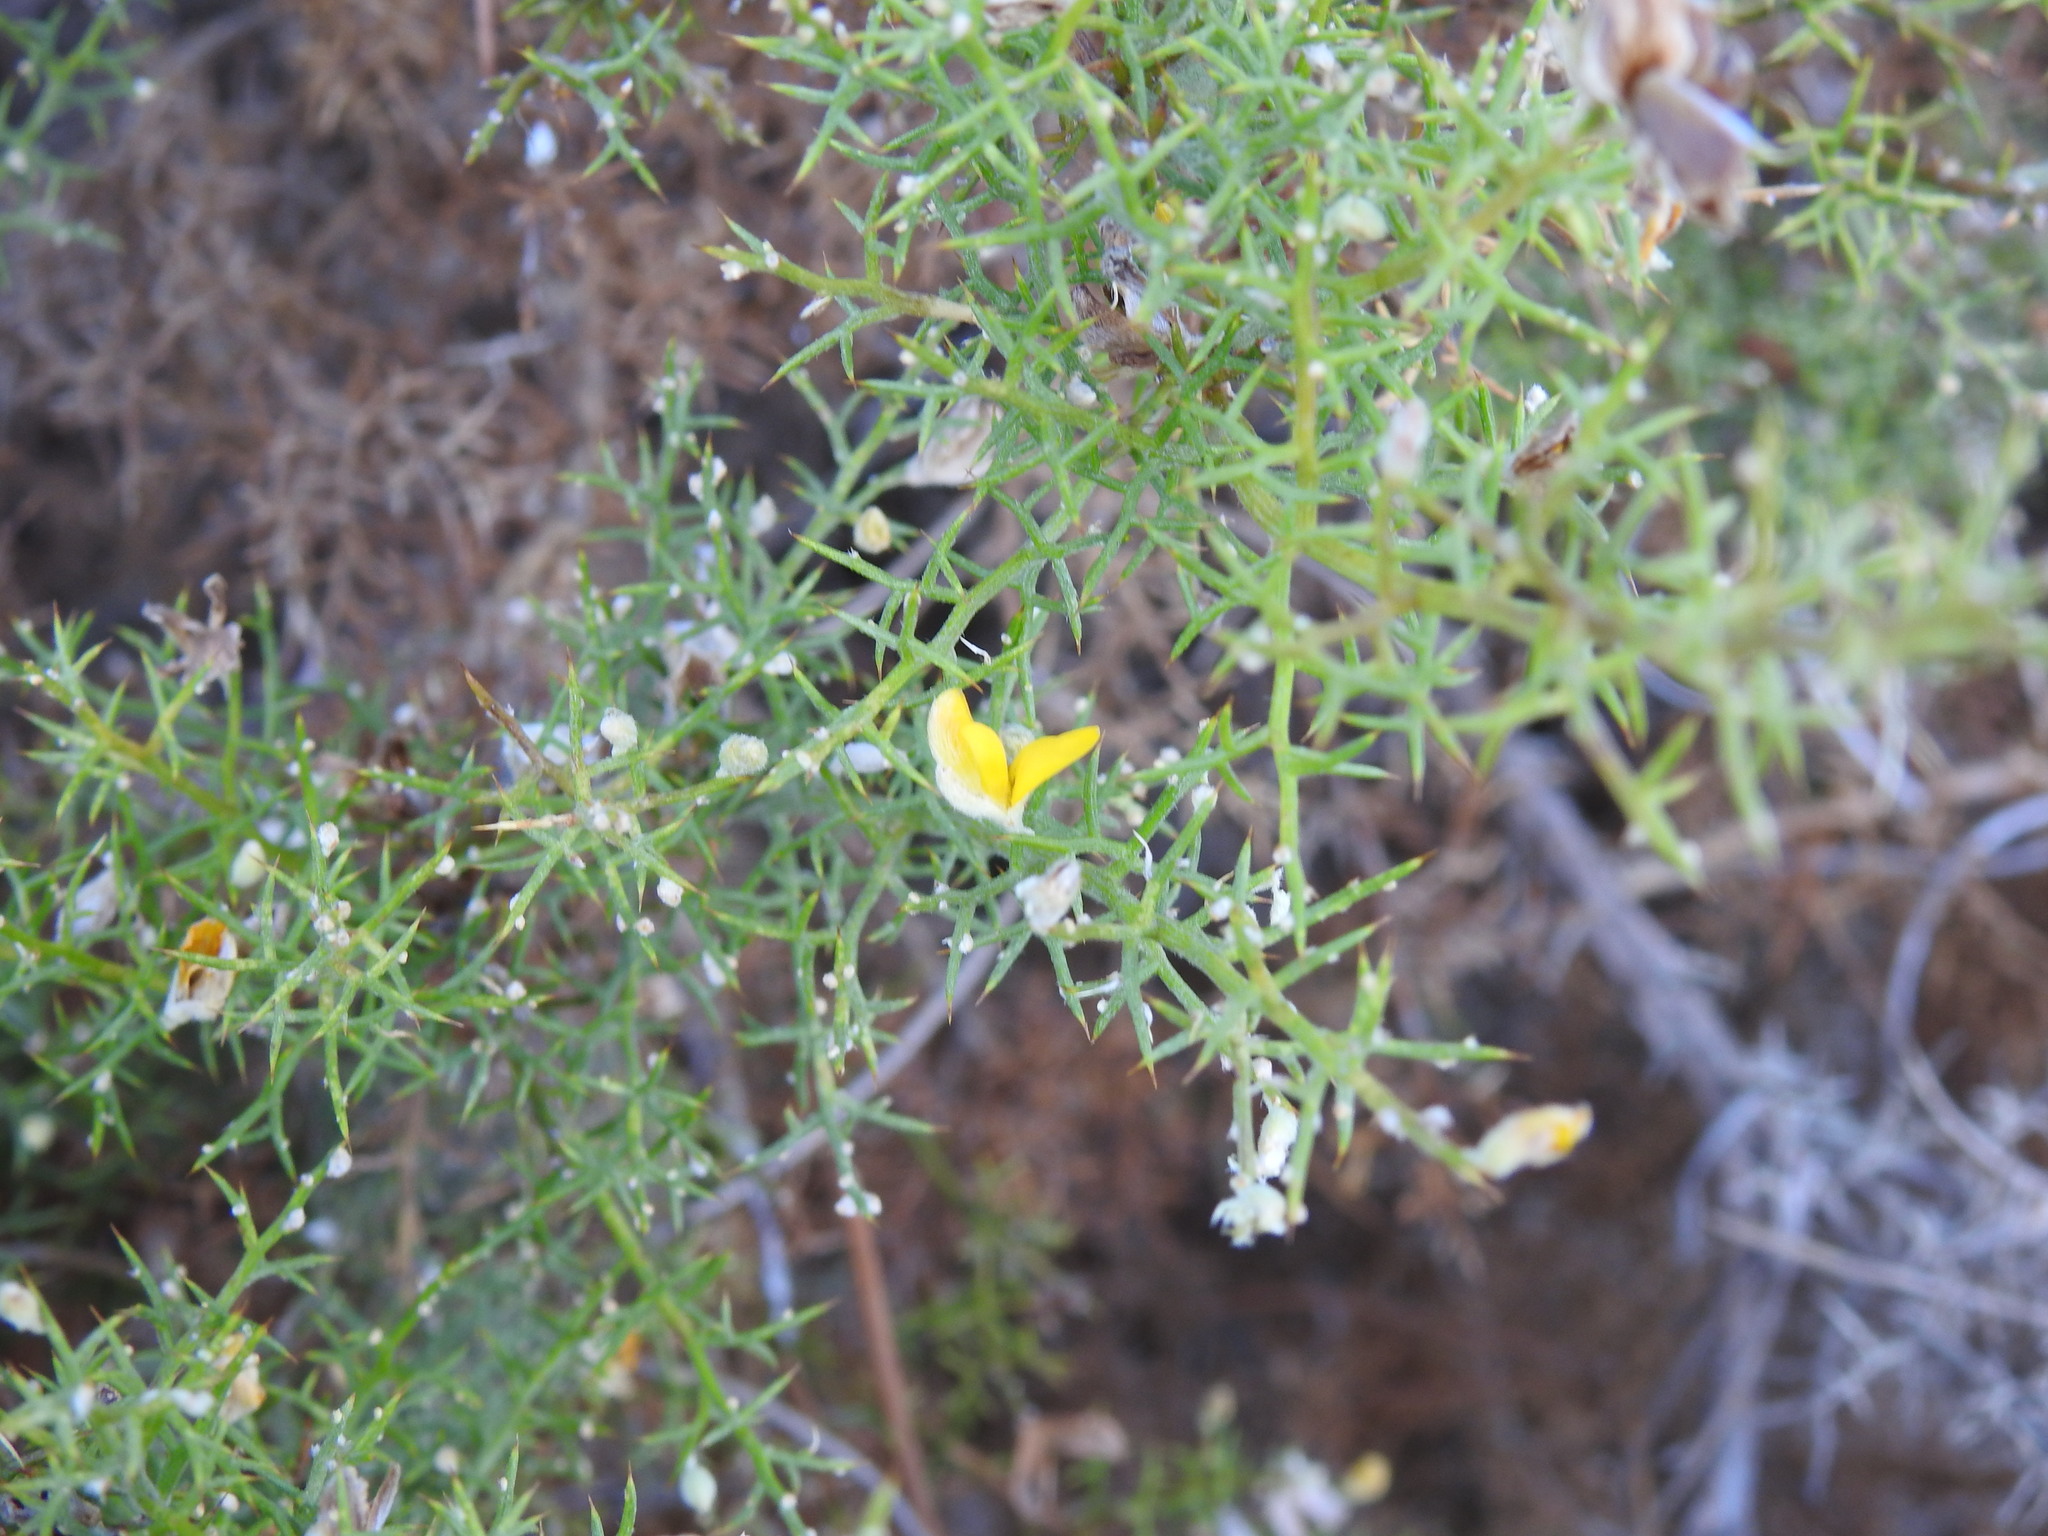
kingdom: Plantae
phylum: Tracheophyta
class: Magnoliopsida
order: Fabales
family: Fabaceae
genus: Stauracanthus
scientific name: Stauracanthus boivinii
